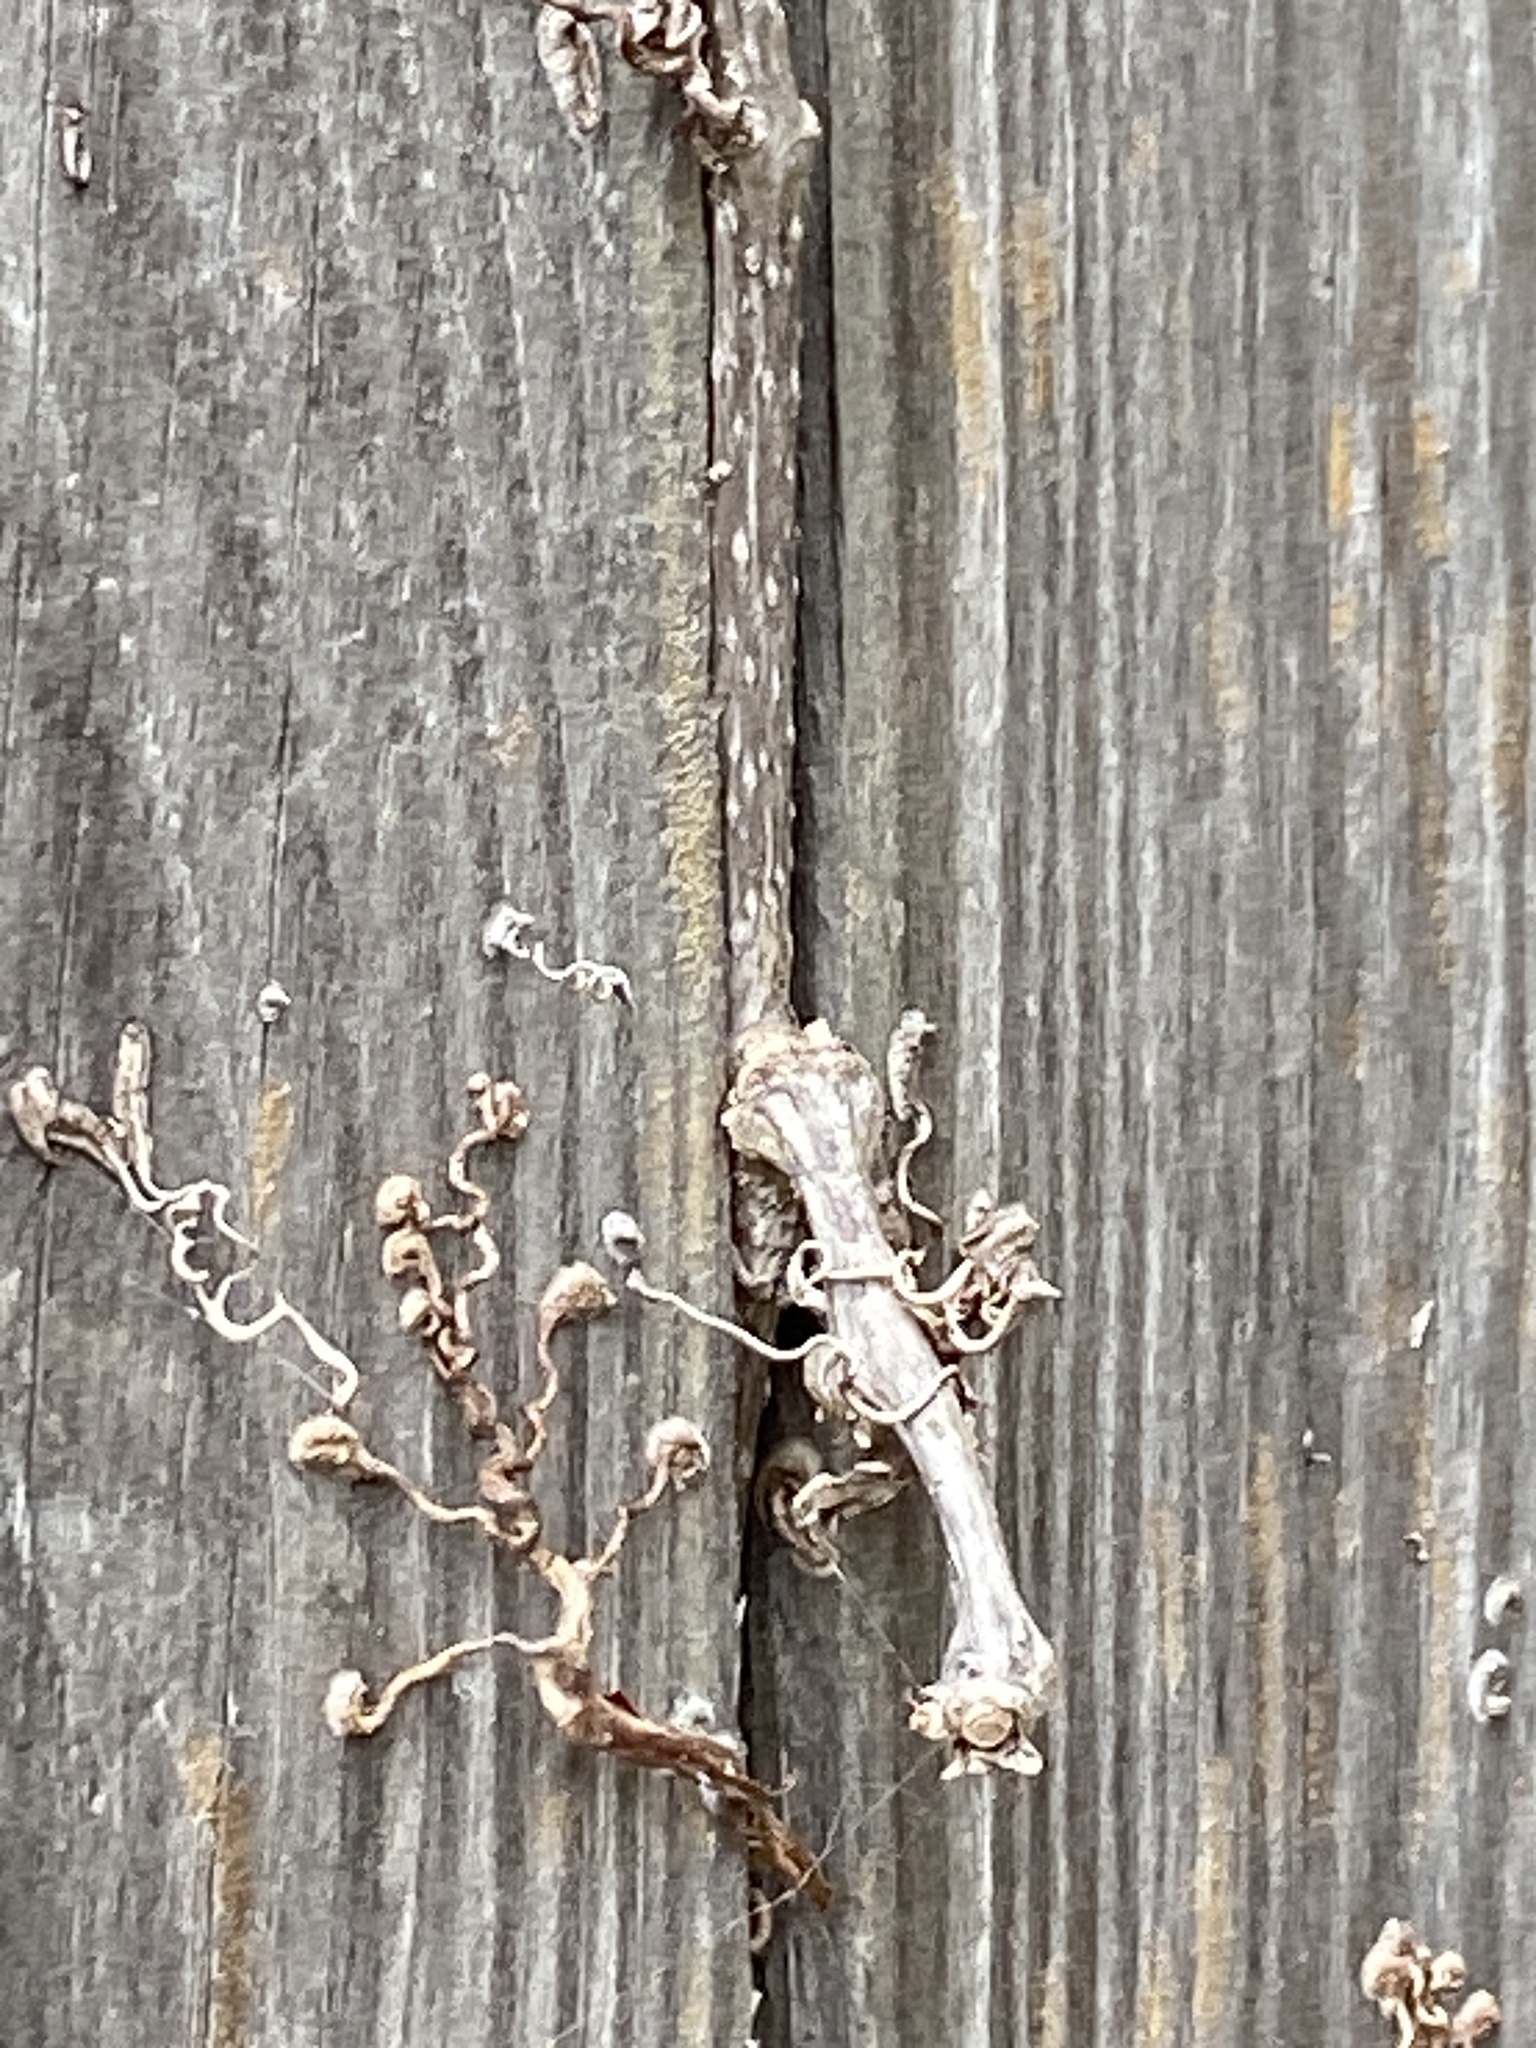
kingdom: Plantae
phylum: Tracheophyta
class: Magnoliopsida
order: Vitales
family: Vitaceae
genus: Parthenocissus
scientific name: Parthenocissus quinquefolia
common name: Virginia-creeper
